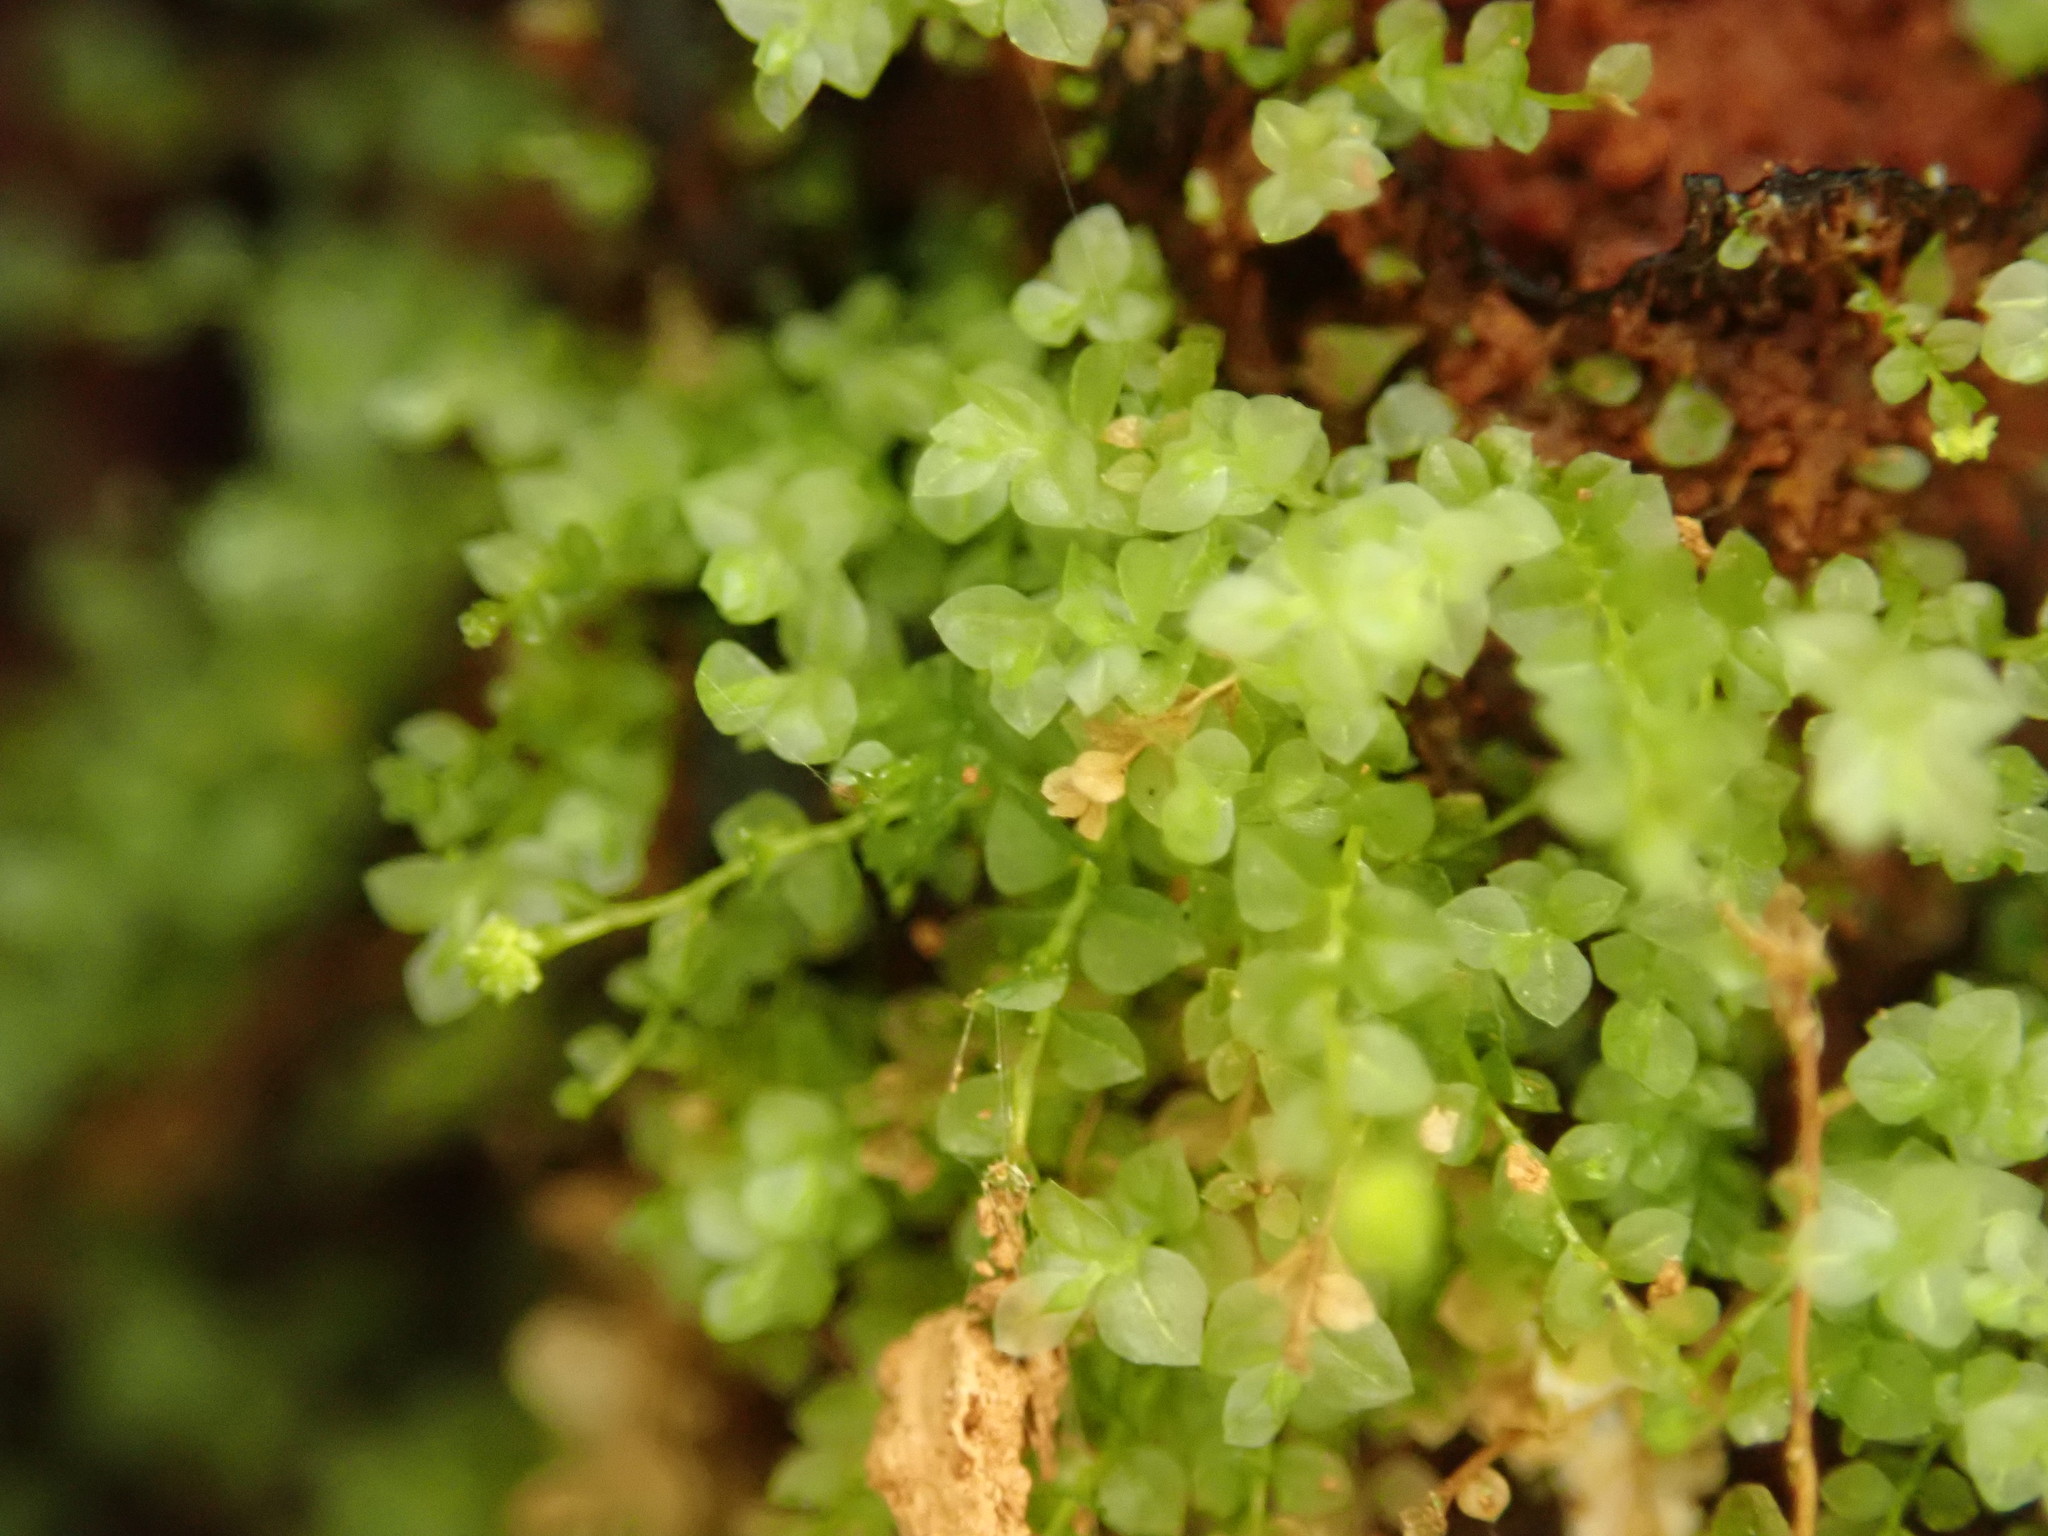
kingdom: Plantae
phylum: Bryophyta
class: Polytrichopsida
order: Tetraphidales
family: Tetraphidaceae
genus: Tetraphis
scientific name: Tetraphis pellucida
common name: Common four-toothed moss
